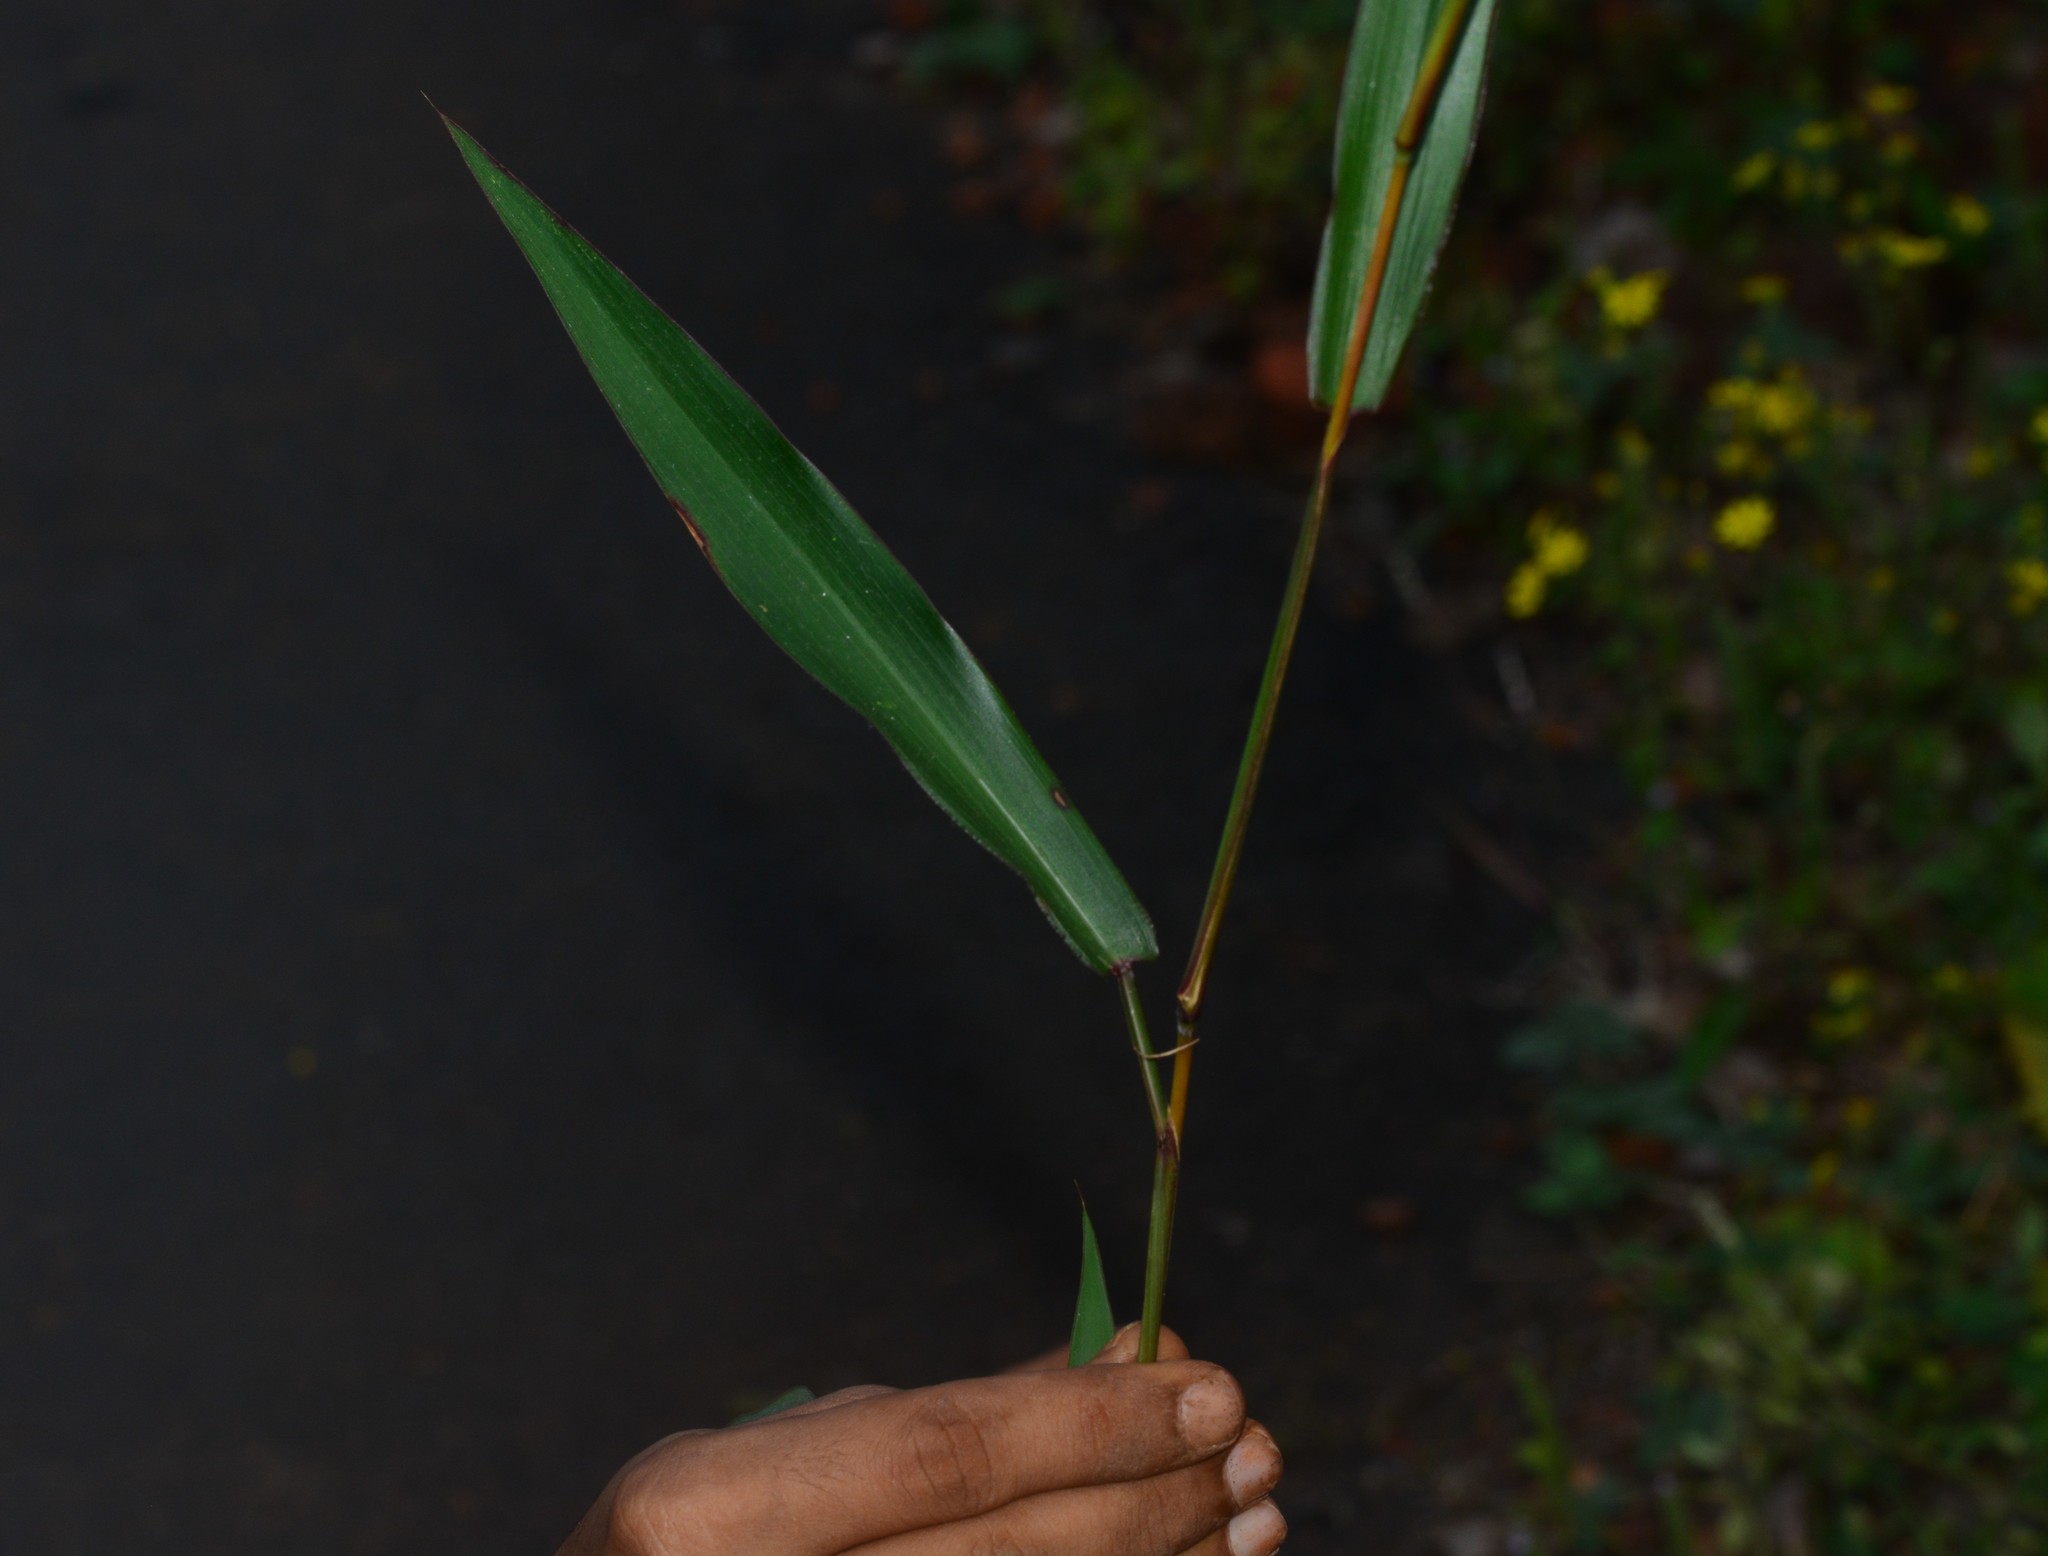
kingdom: Plantae
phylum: Tracheophyta
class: Liliopsida
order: Poales
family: Poaceae
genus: Ischaemum
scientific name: Ischaemum dalzellii
